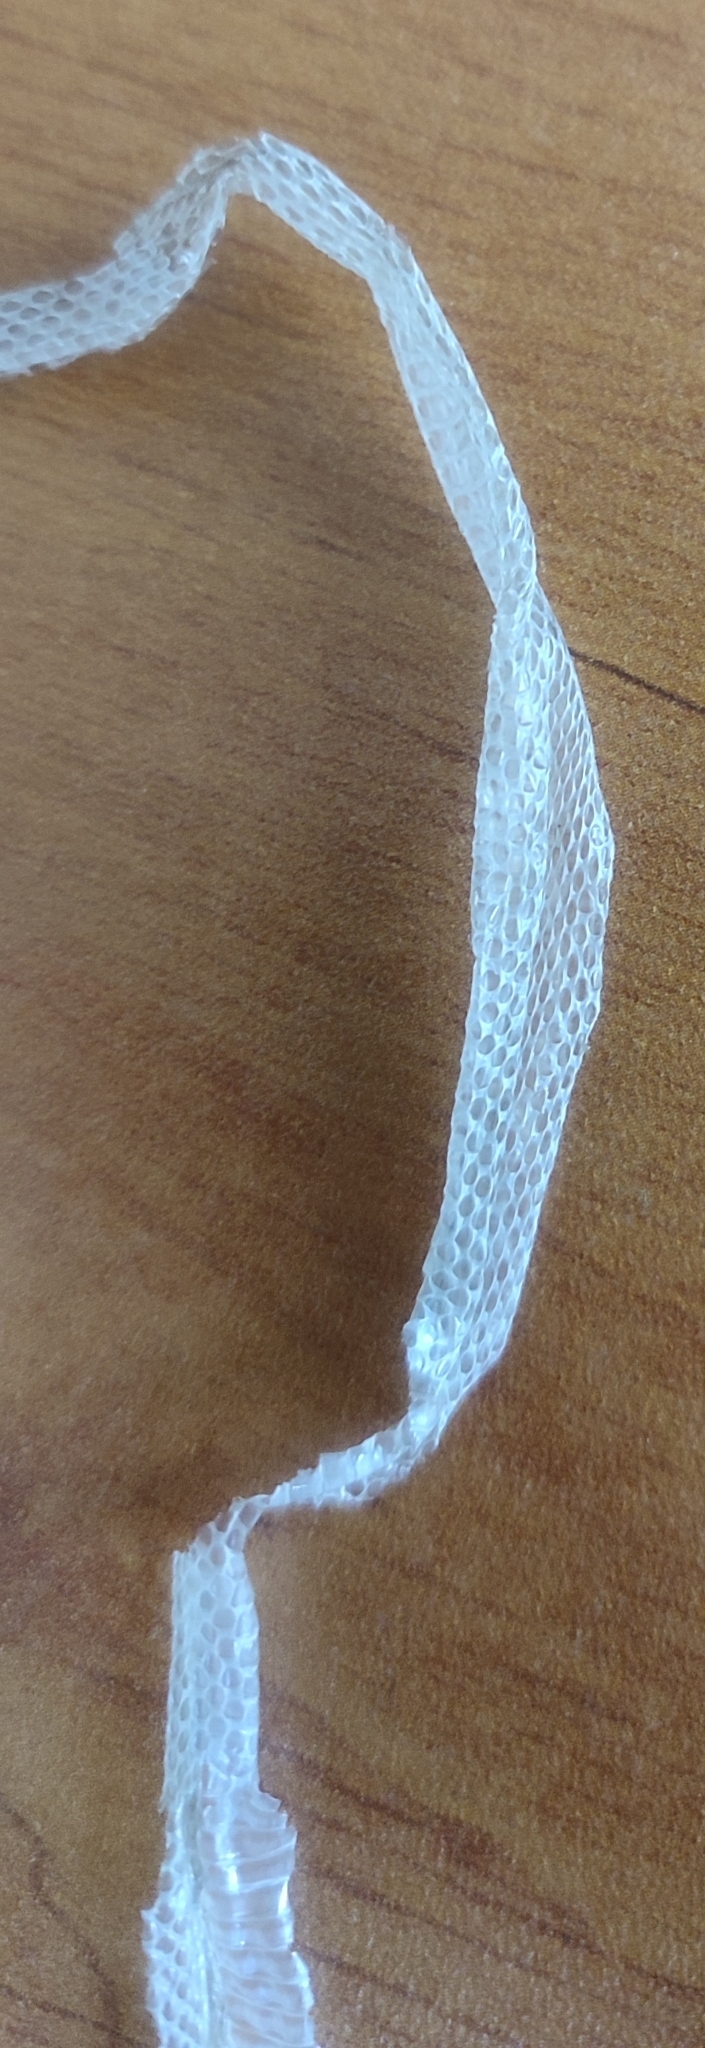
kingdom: Animalia
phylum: Chordata
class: Squamata
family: Colubridae
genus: Coronella
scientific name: Coronella girondica
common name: Southern smooth snake
